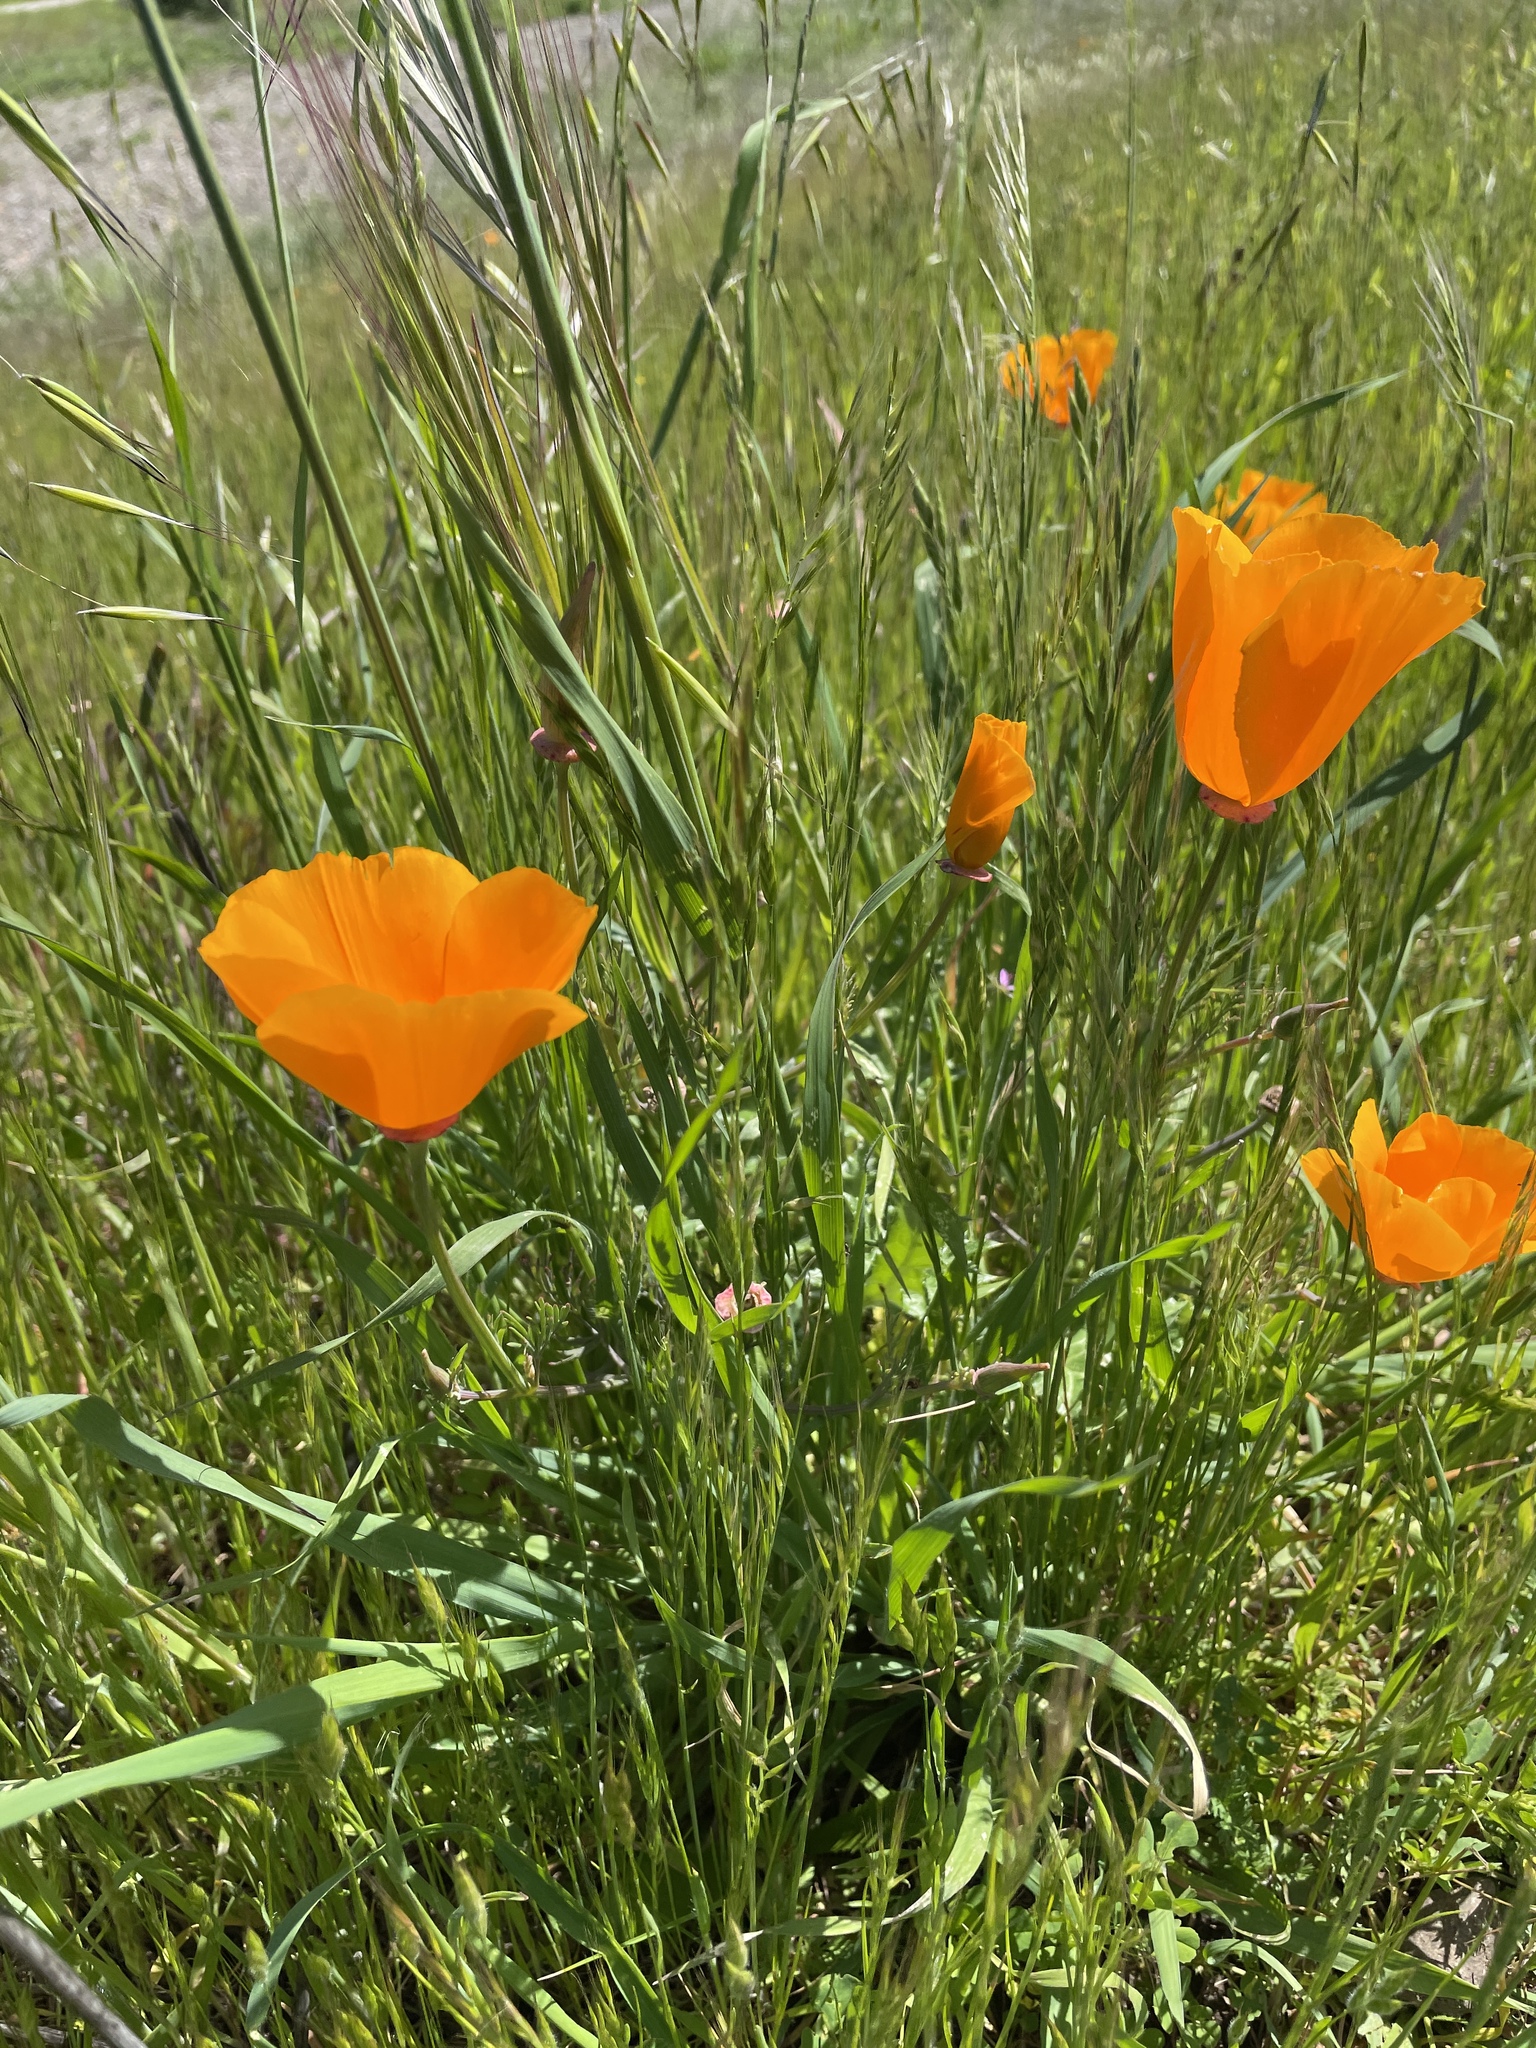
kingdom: Plantae
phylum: Tracheophyta
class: Magnoliopsida
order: Ranunculales
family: Papaveraceae
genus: Eschscholzia
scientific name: Eschscholzia californica
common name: California poppy
